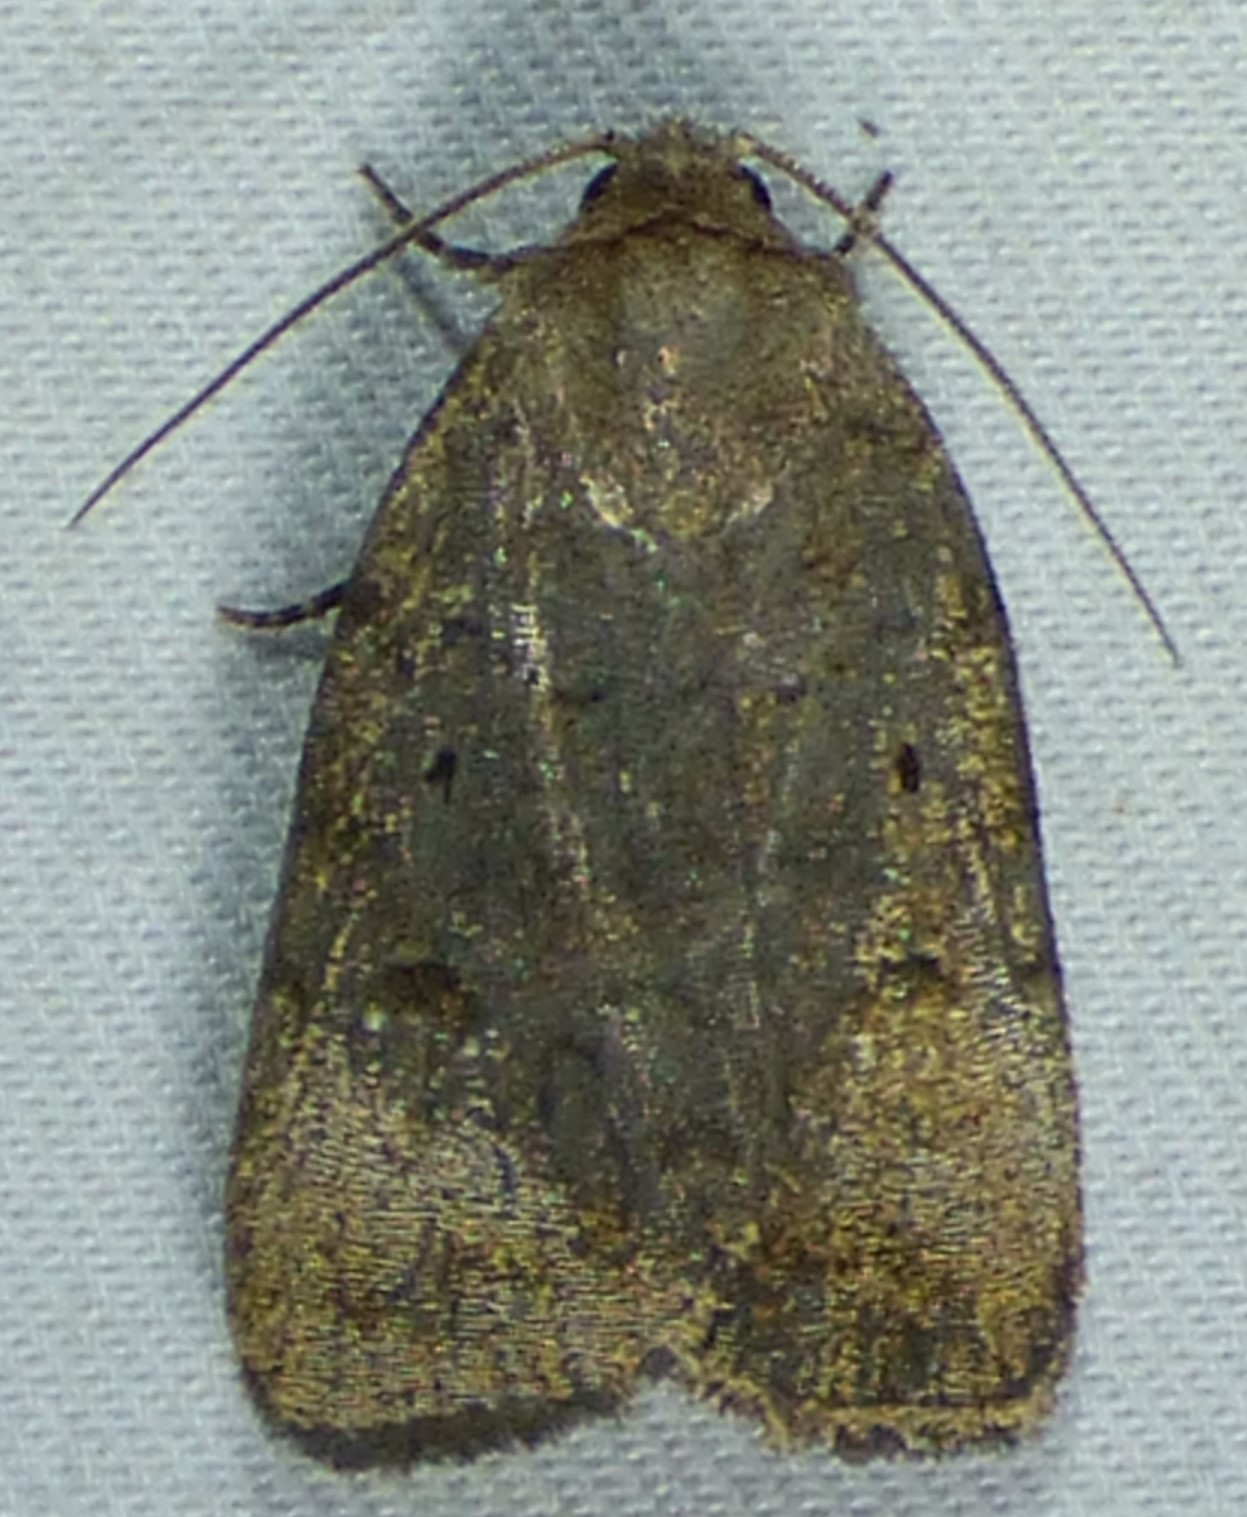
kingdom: Animalia
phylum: Arthropoda
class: Insecta
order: Lepidoptera
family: Noctuidae
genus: Athetis
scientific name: Athetis tarda
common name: Slowpoke moth
